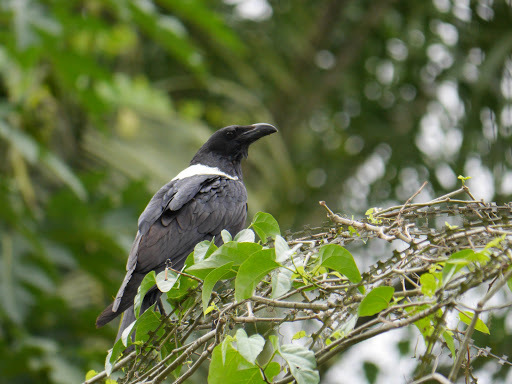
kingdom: Animalia
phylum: Chordata
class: Aves
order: Passeriformes
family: Corvidae
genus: Corvus
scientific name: Corvus albus
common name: Pied crow
